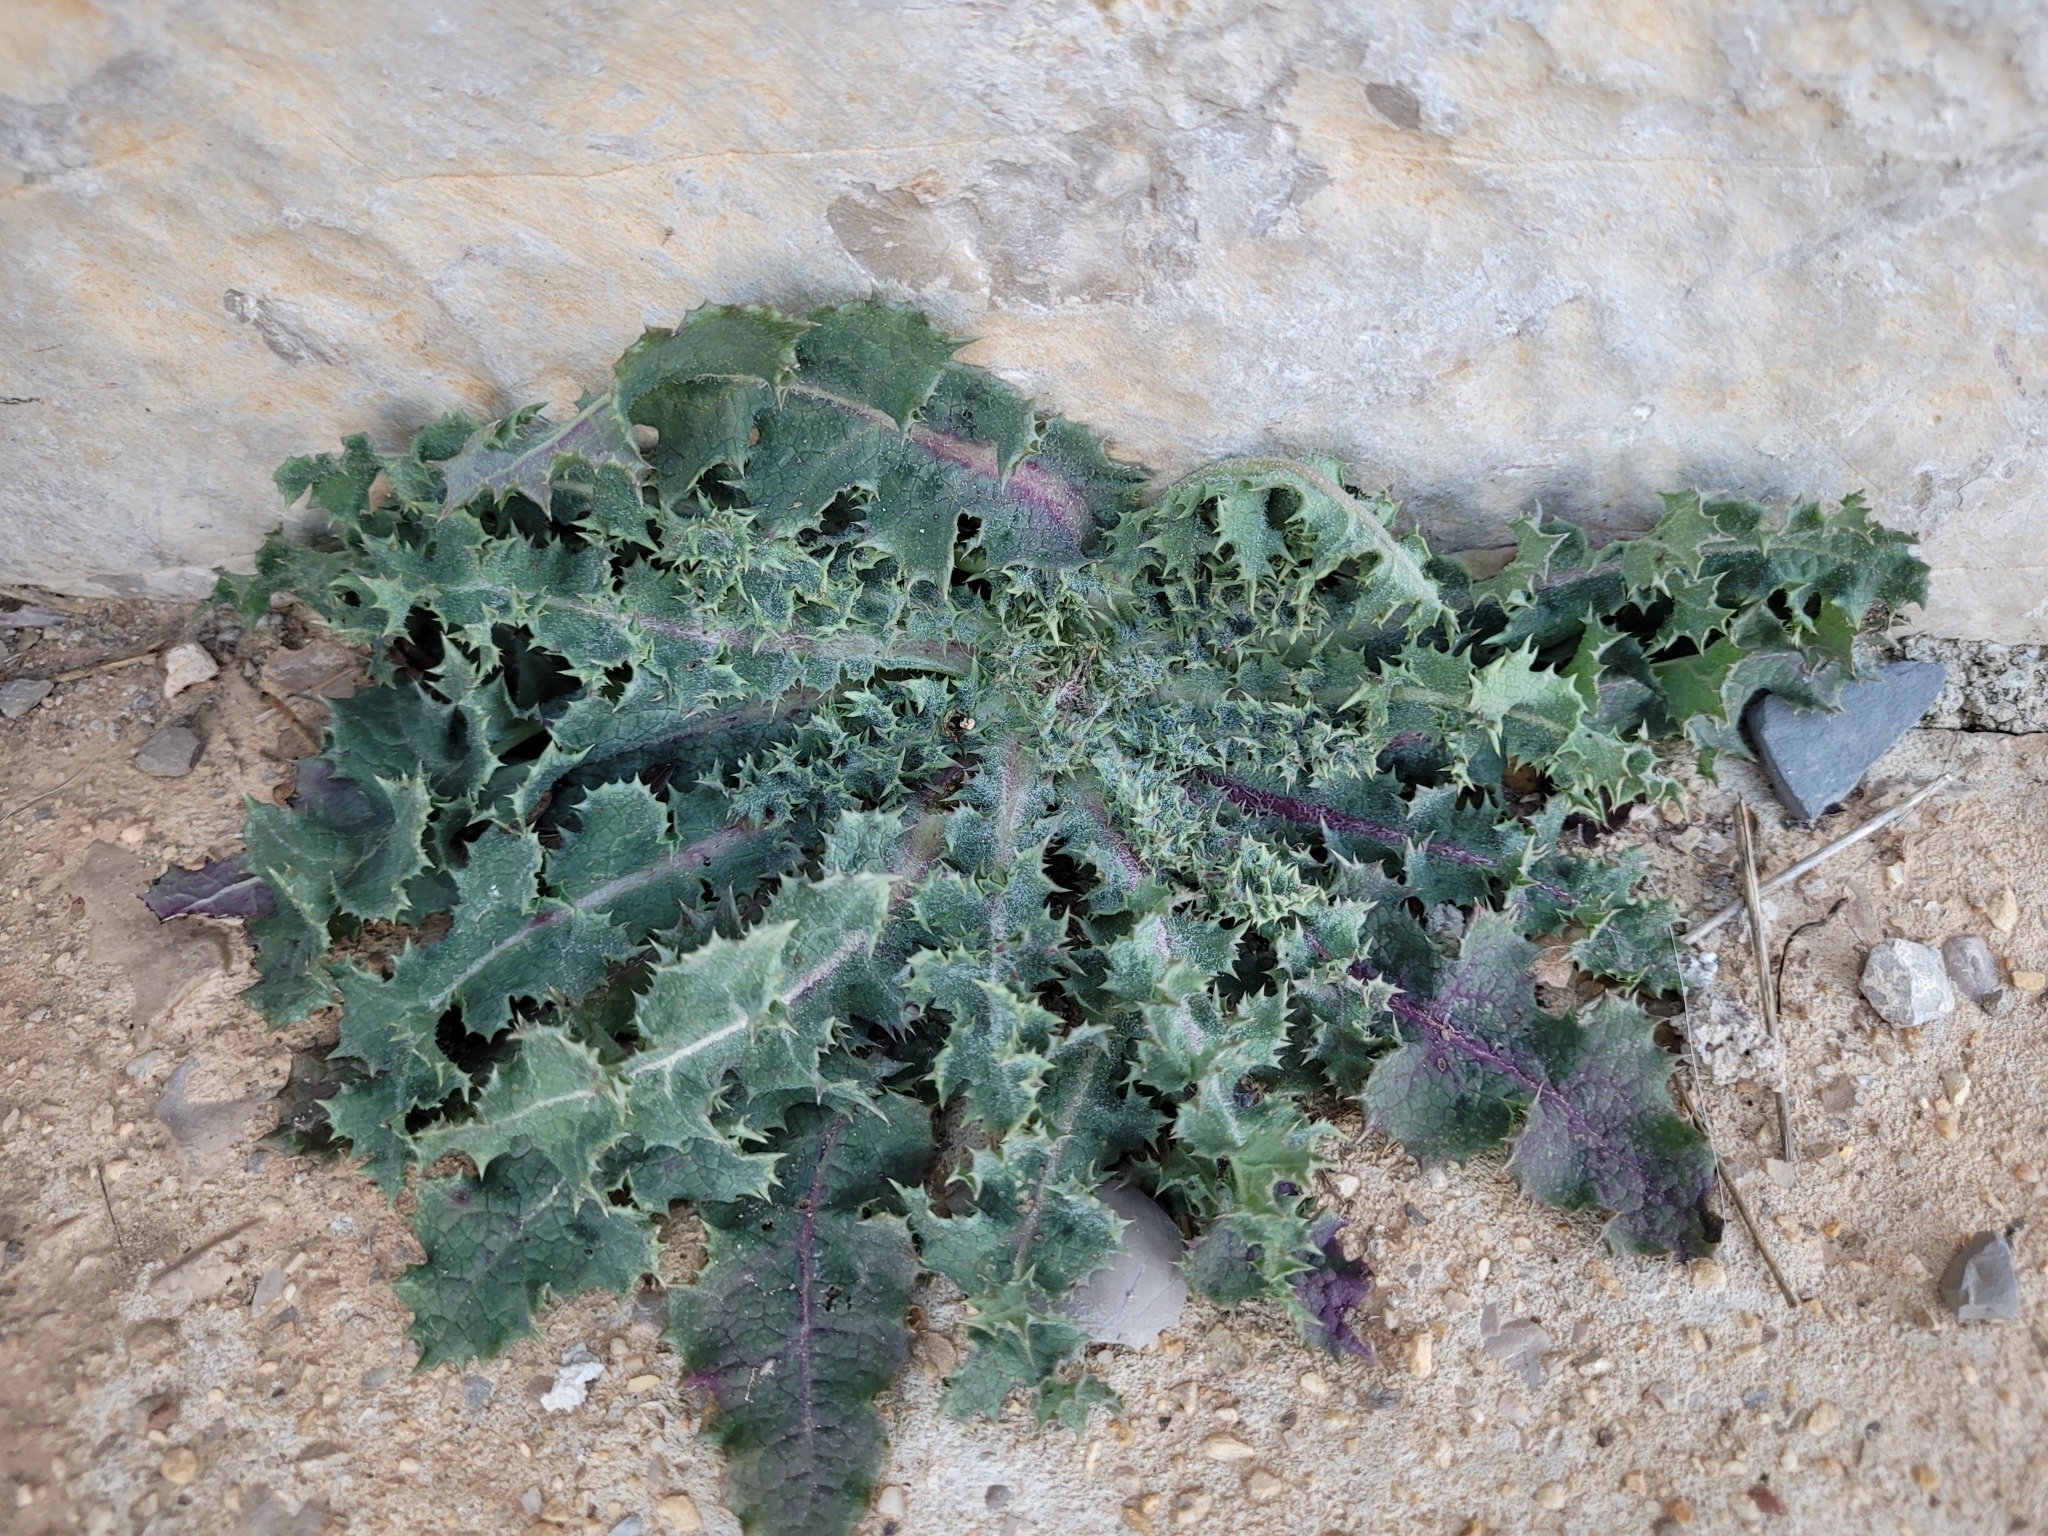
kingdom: Plantae
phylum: Tracheophyta
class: Magnoliopsida
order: Asterales
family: Asteraceae
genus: Sonchus
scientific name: Sonchus asper
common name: Prickly sow-thistle
